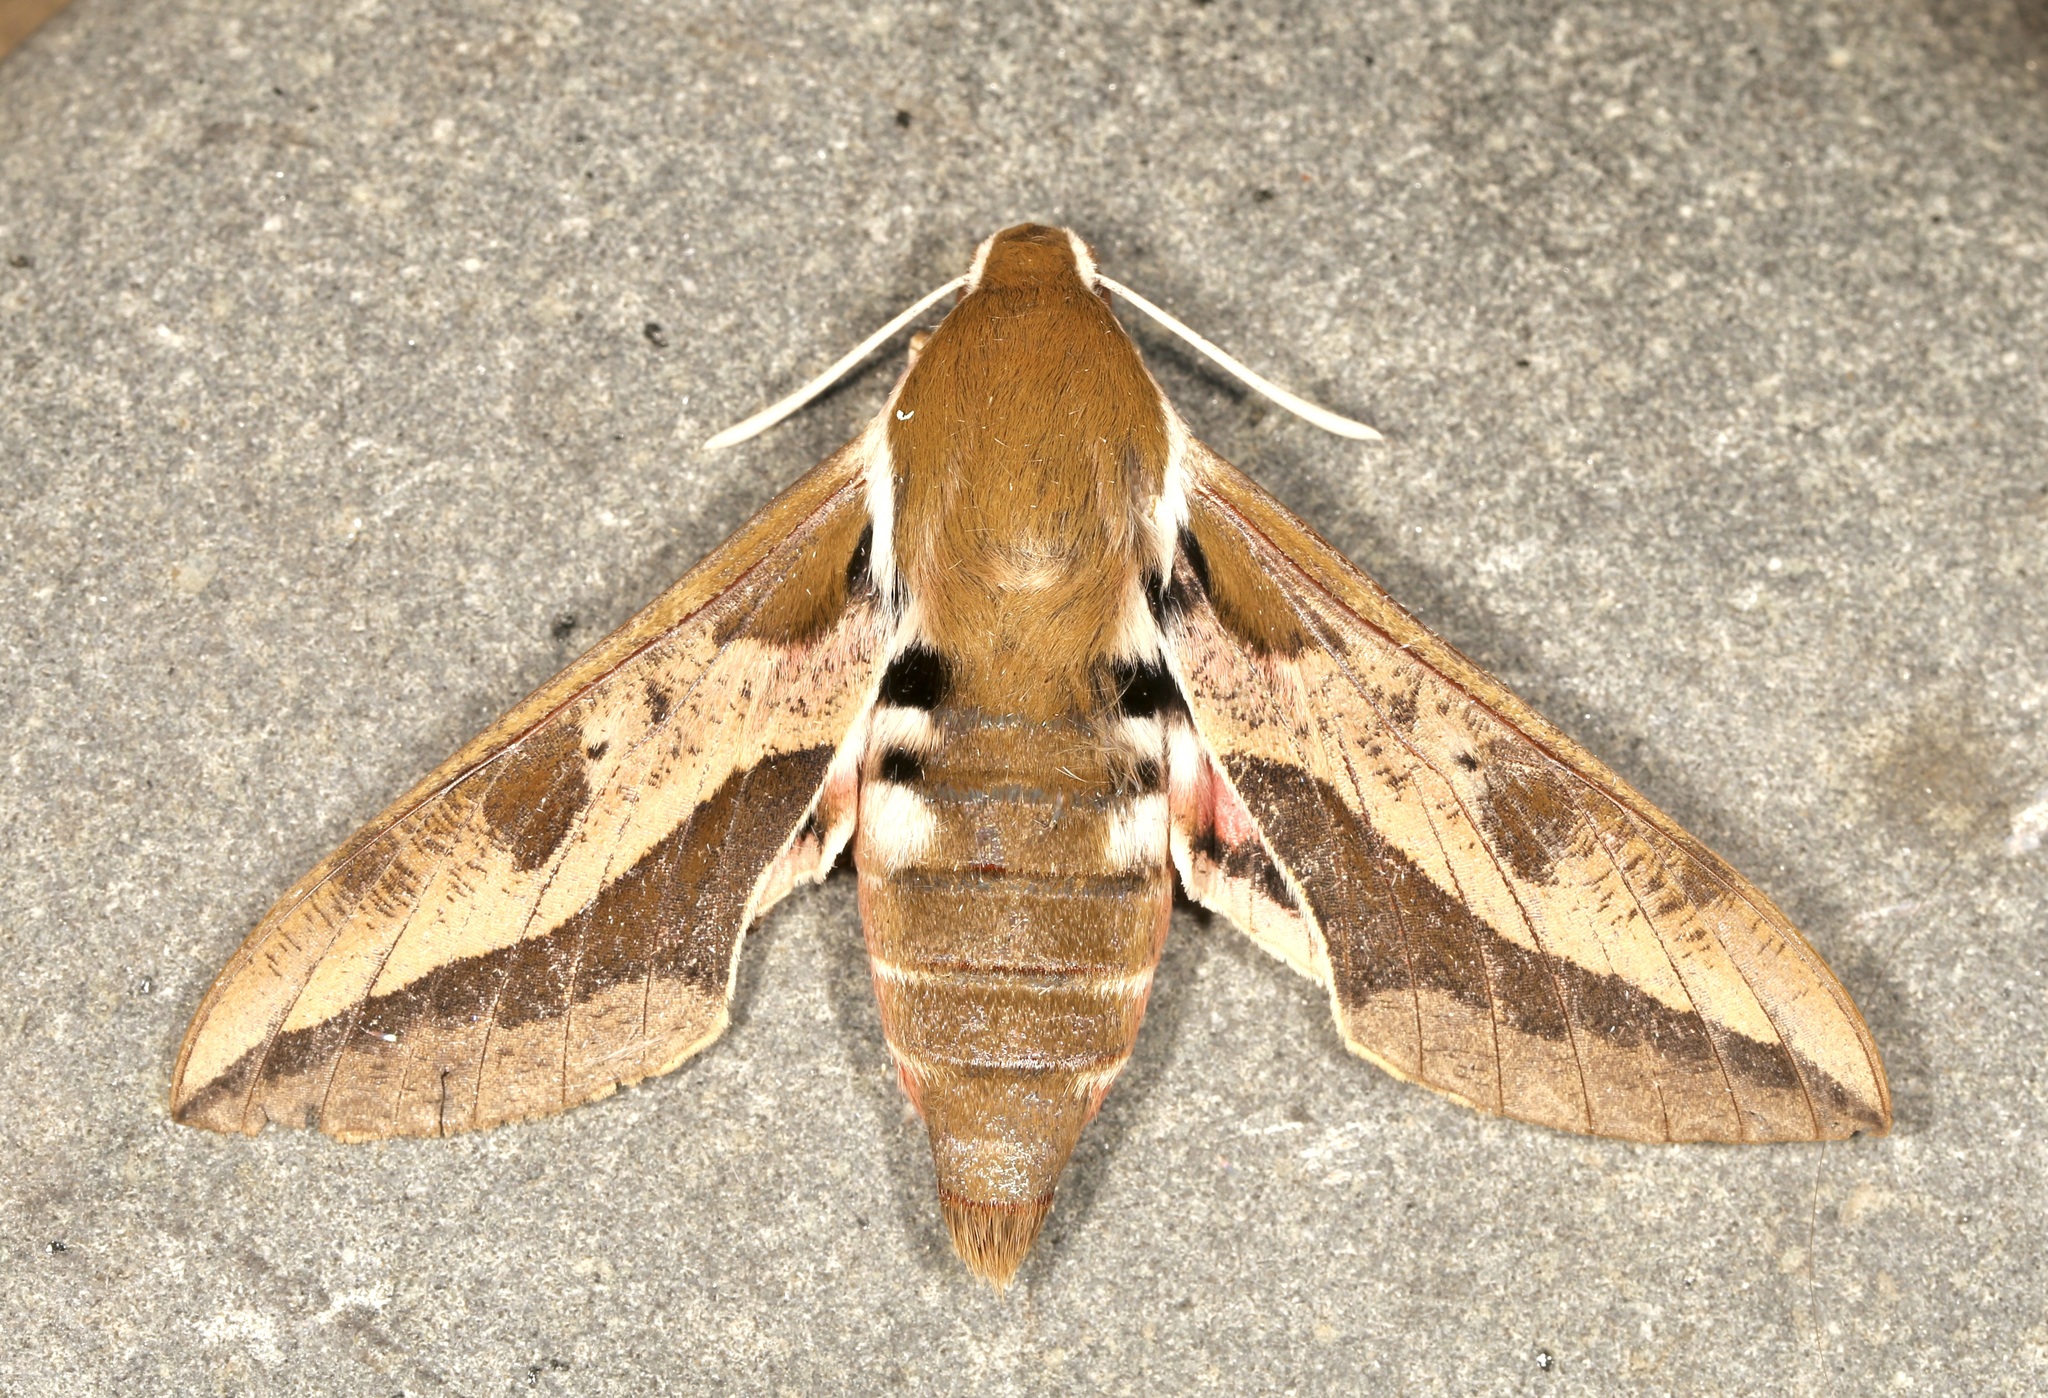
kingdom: Animalia
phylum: Arthropoda
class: Insecta
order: Lepidoptera
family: Sphingidae
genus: Hyles
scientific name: Hyles euphorbiae
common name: Spurge hawk-moth
